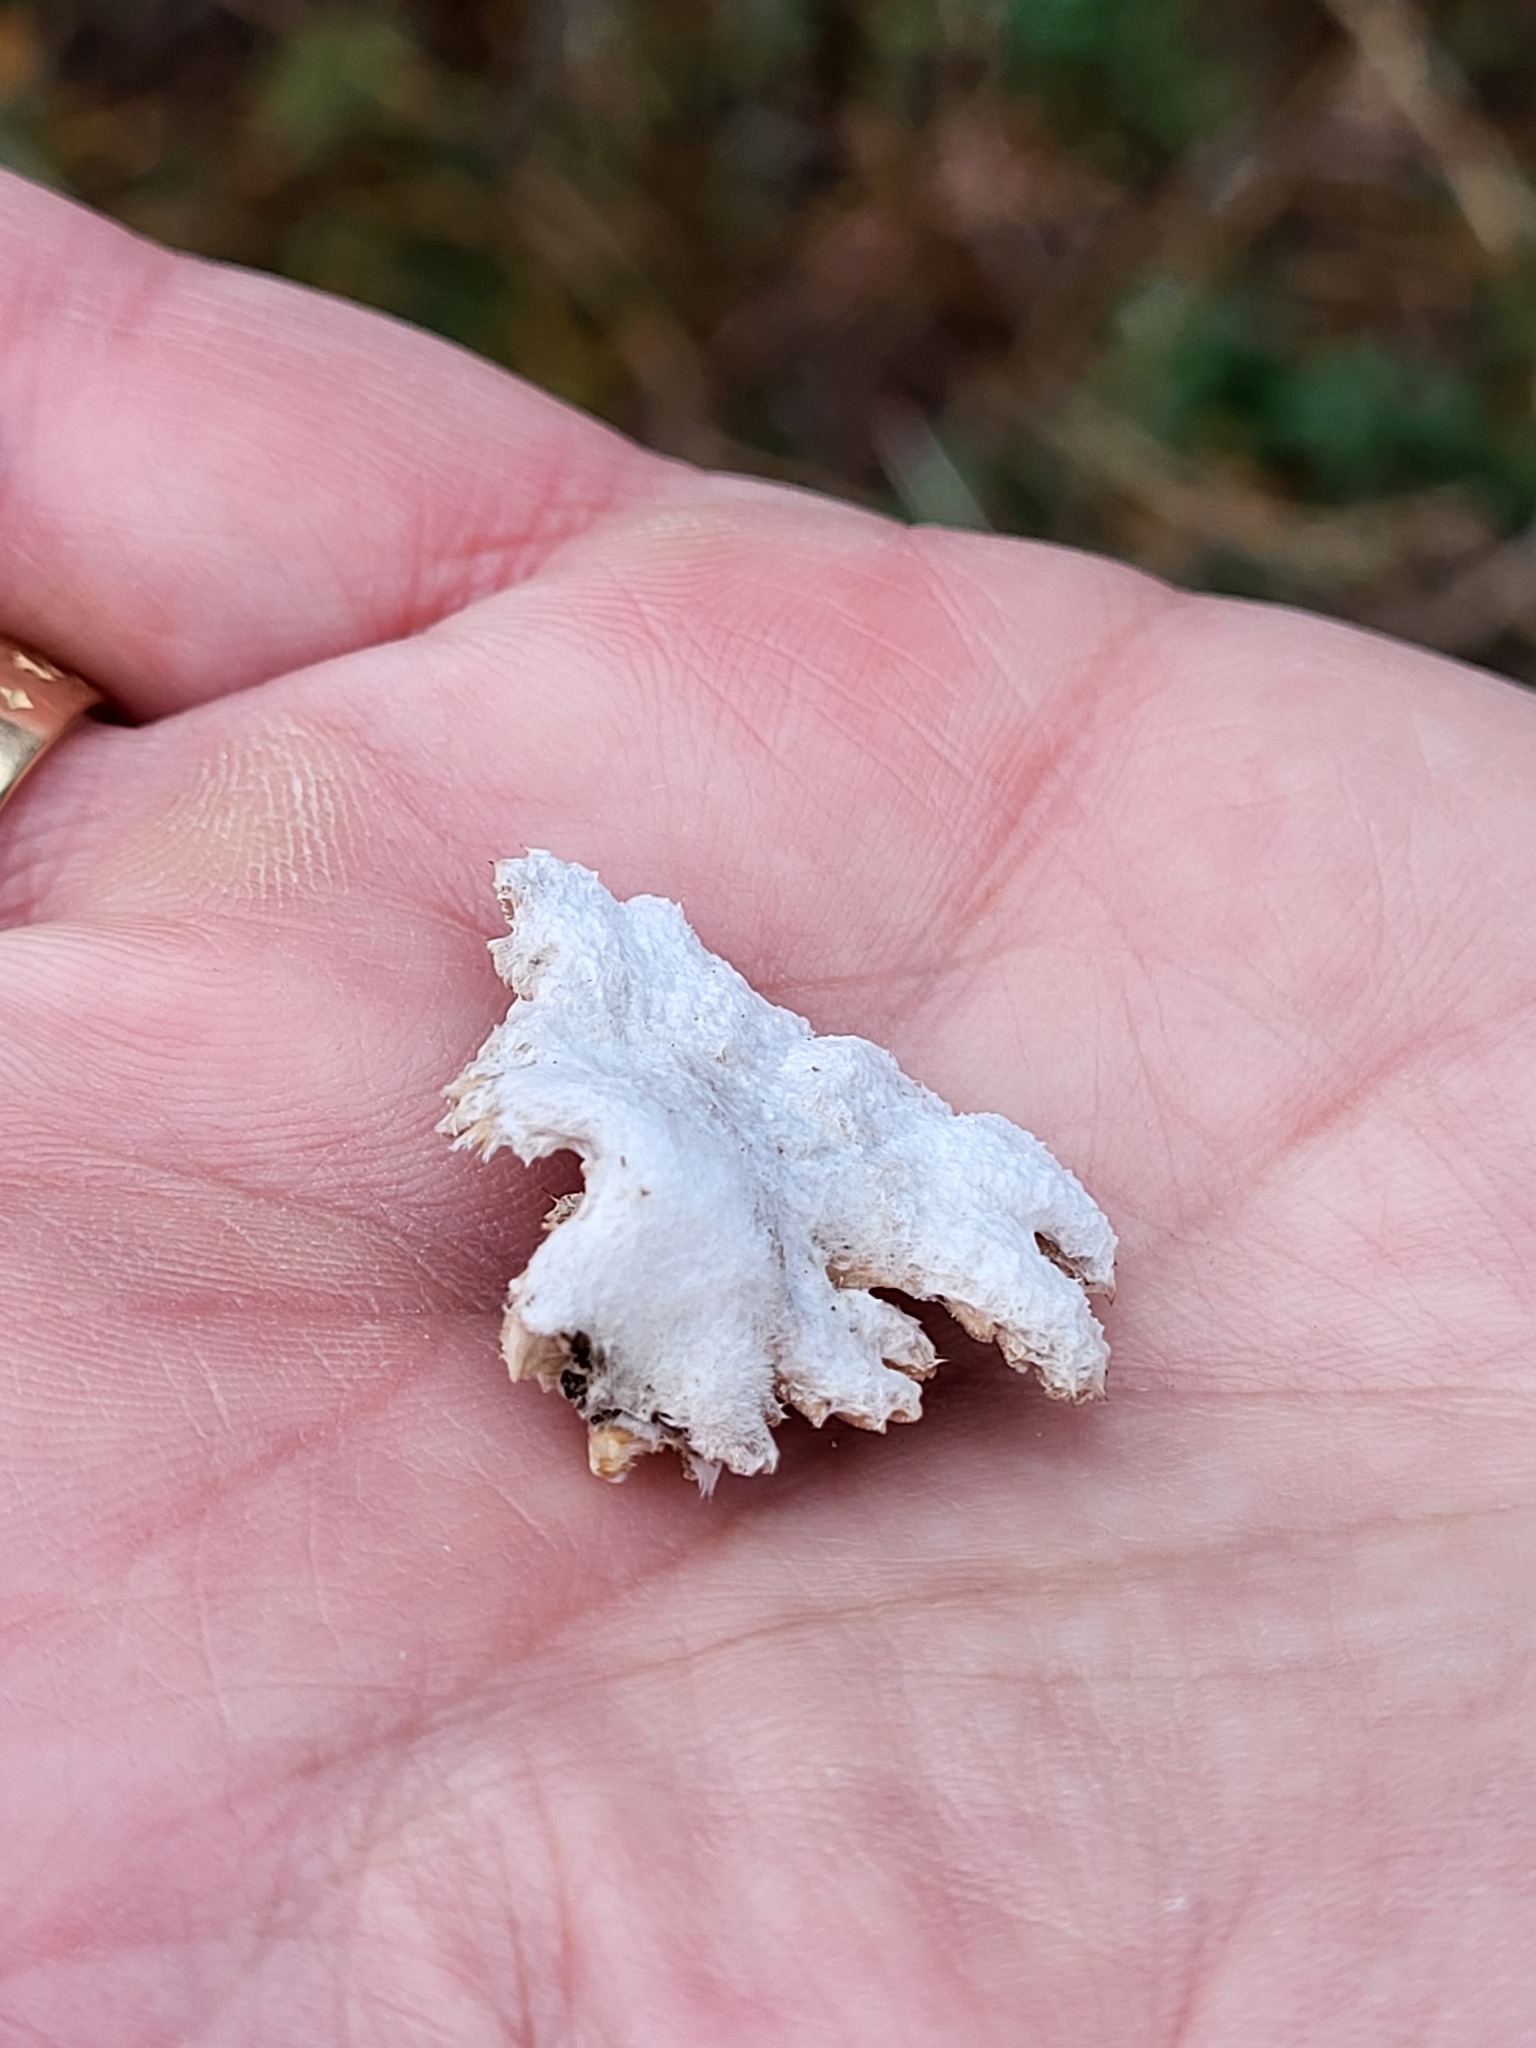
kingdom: Fungi
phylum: Basidiomycota
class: Agaricomycetes
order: Agaricales
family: Schizophyllaceae
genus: Schizophyllum
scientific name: Schizophyllum commune
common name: Common porecrust
